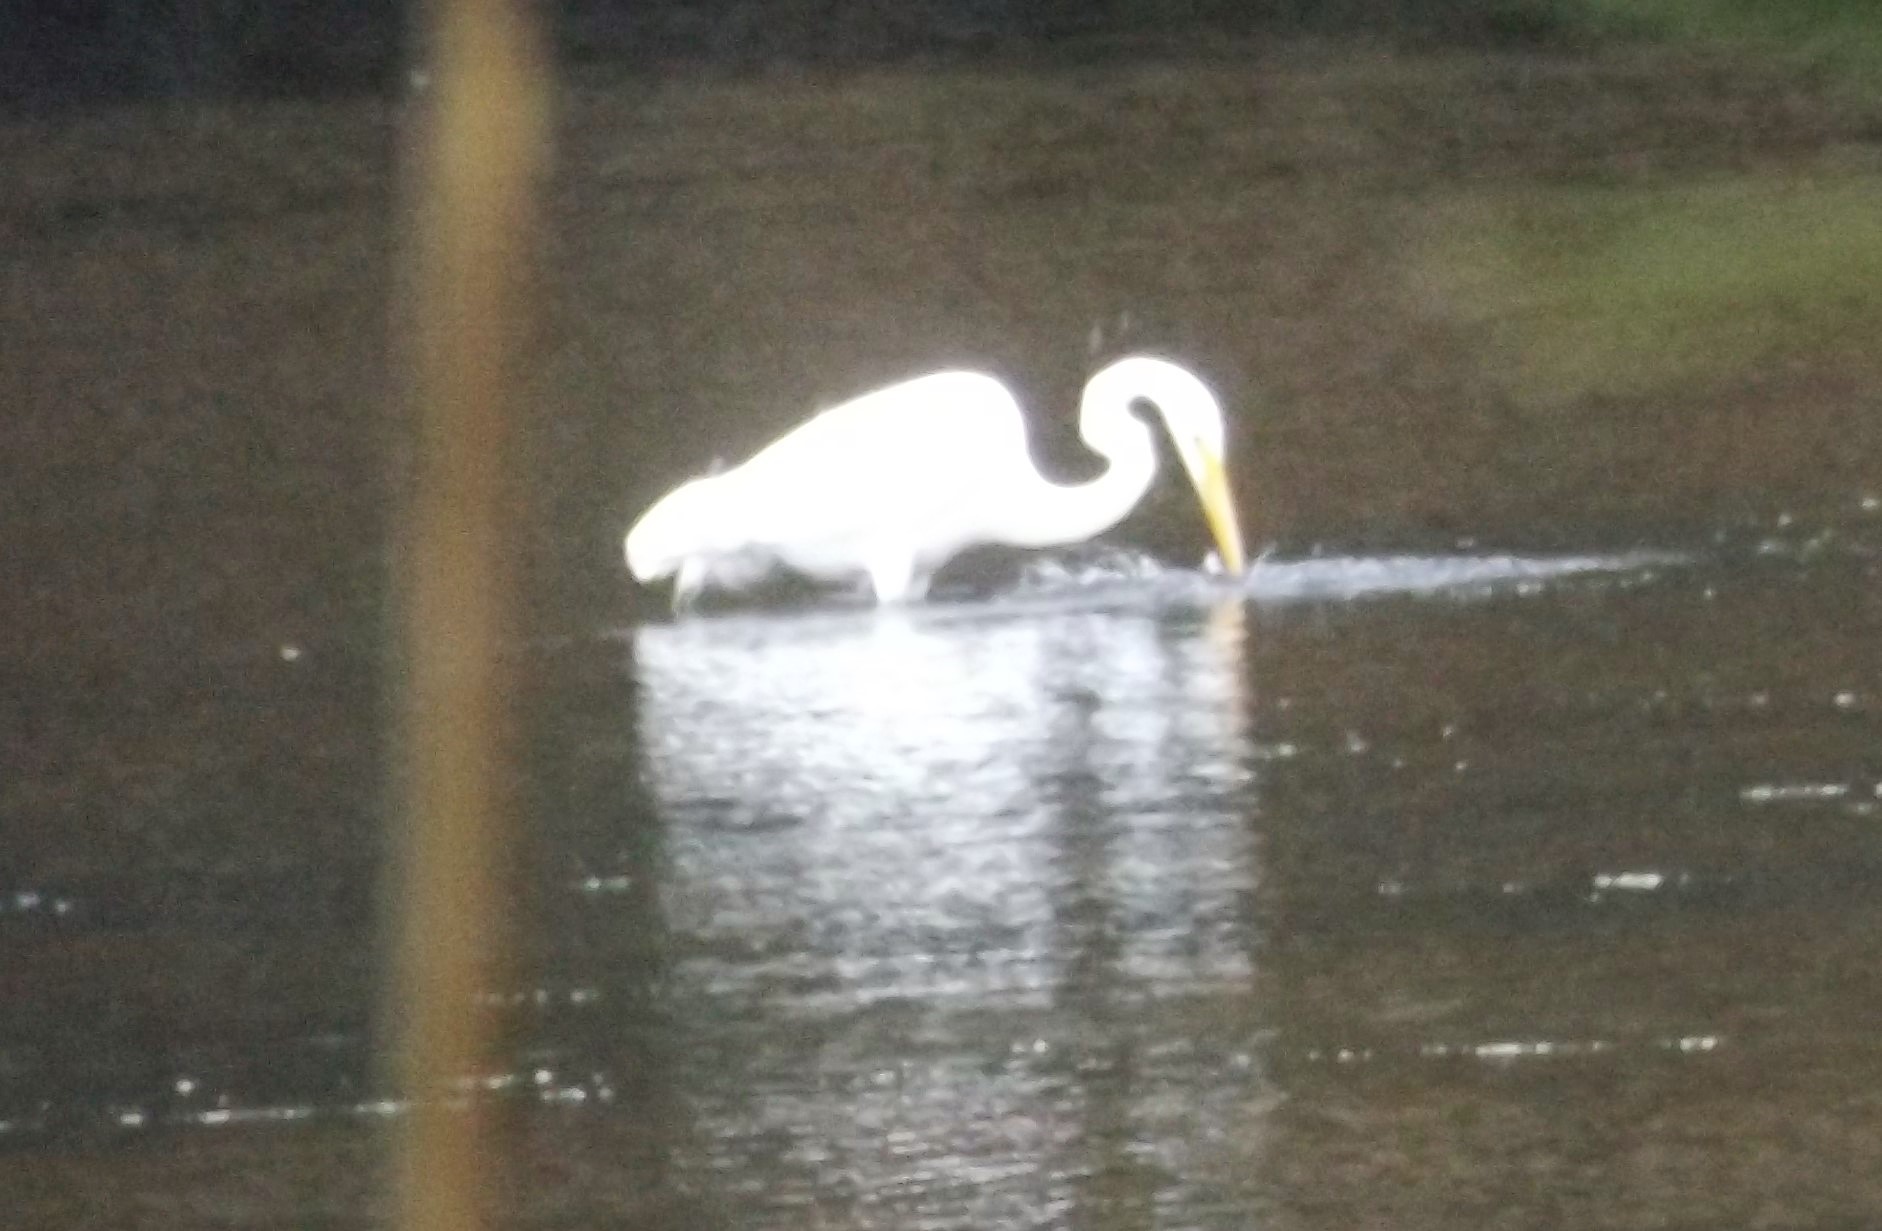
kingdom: Animalia
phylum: Chordata
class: Aves
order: Pelecaniformes
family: Ardeidae
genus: Ardea
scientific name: Ardea alba
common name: Great egret
